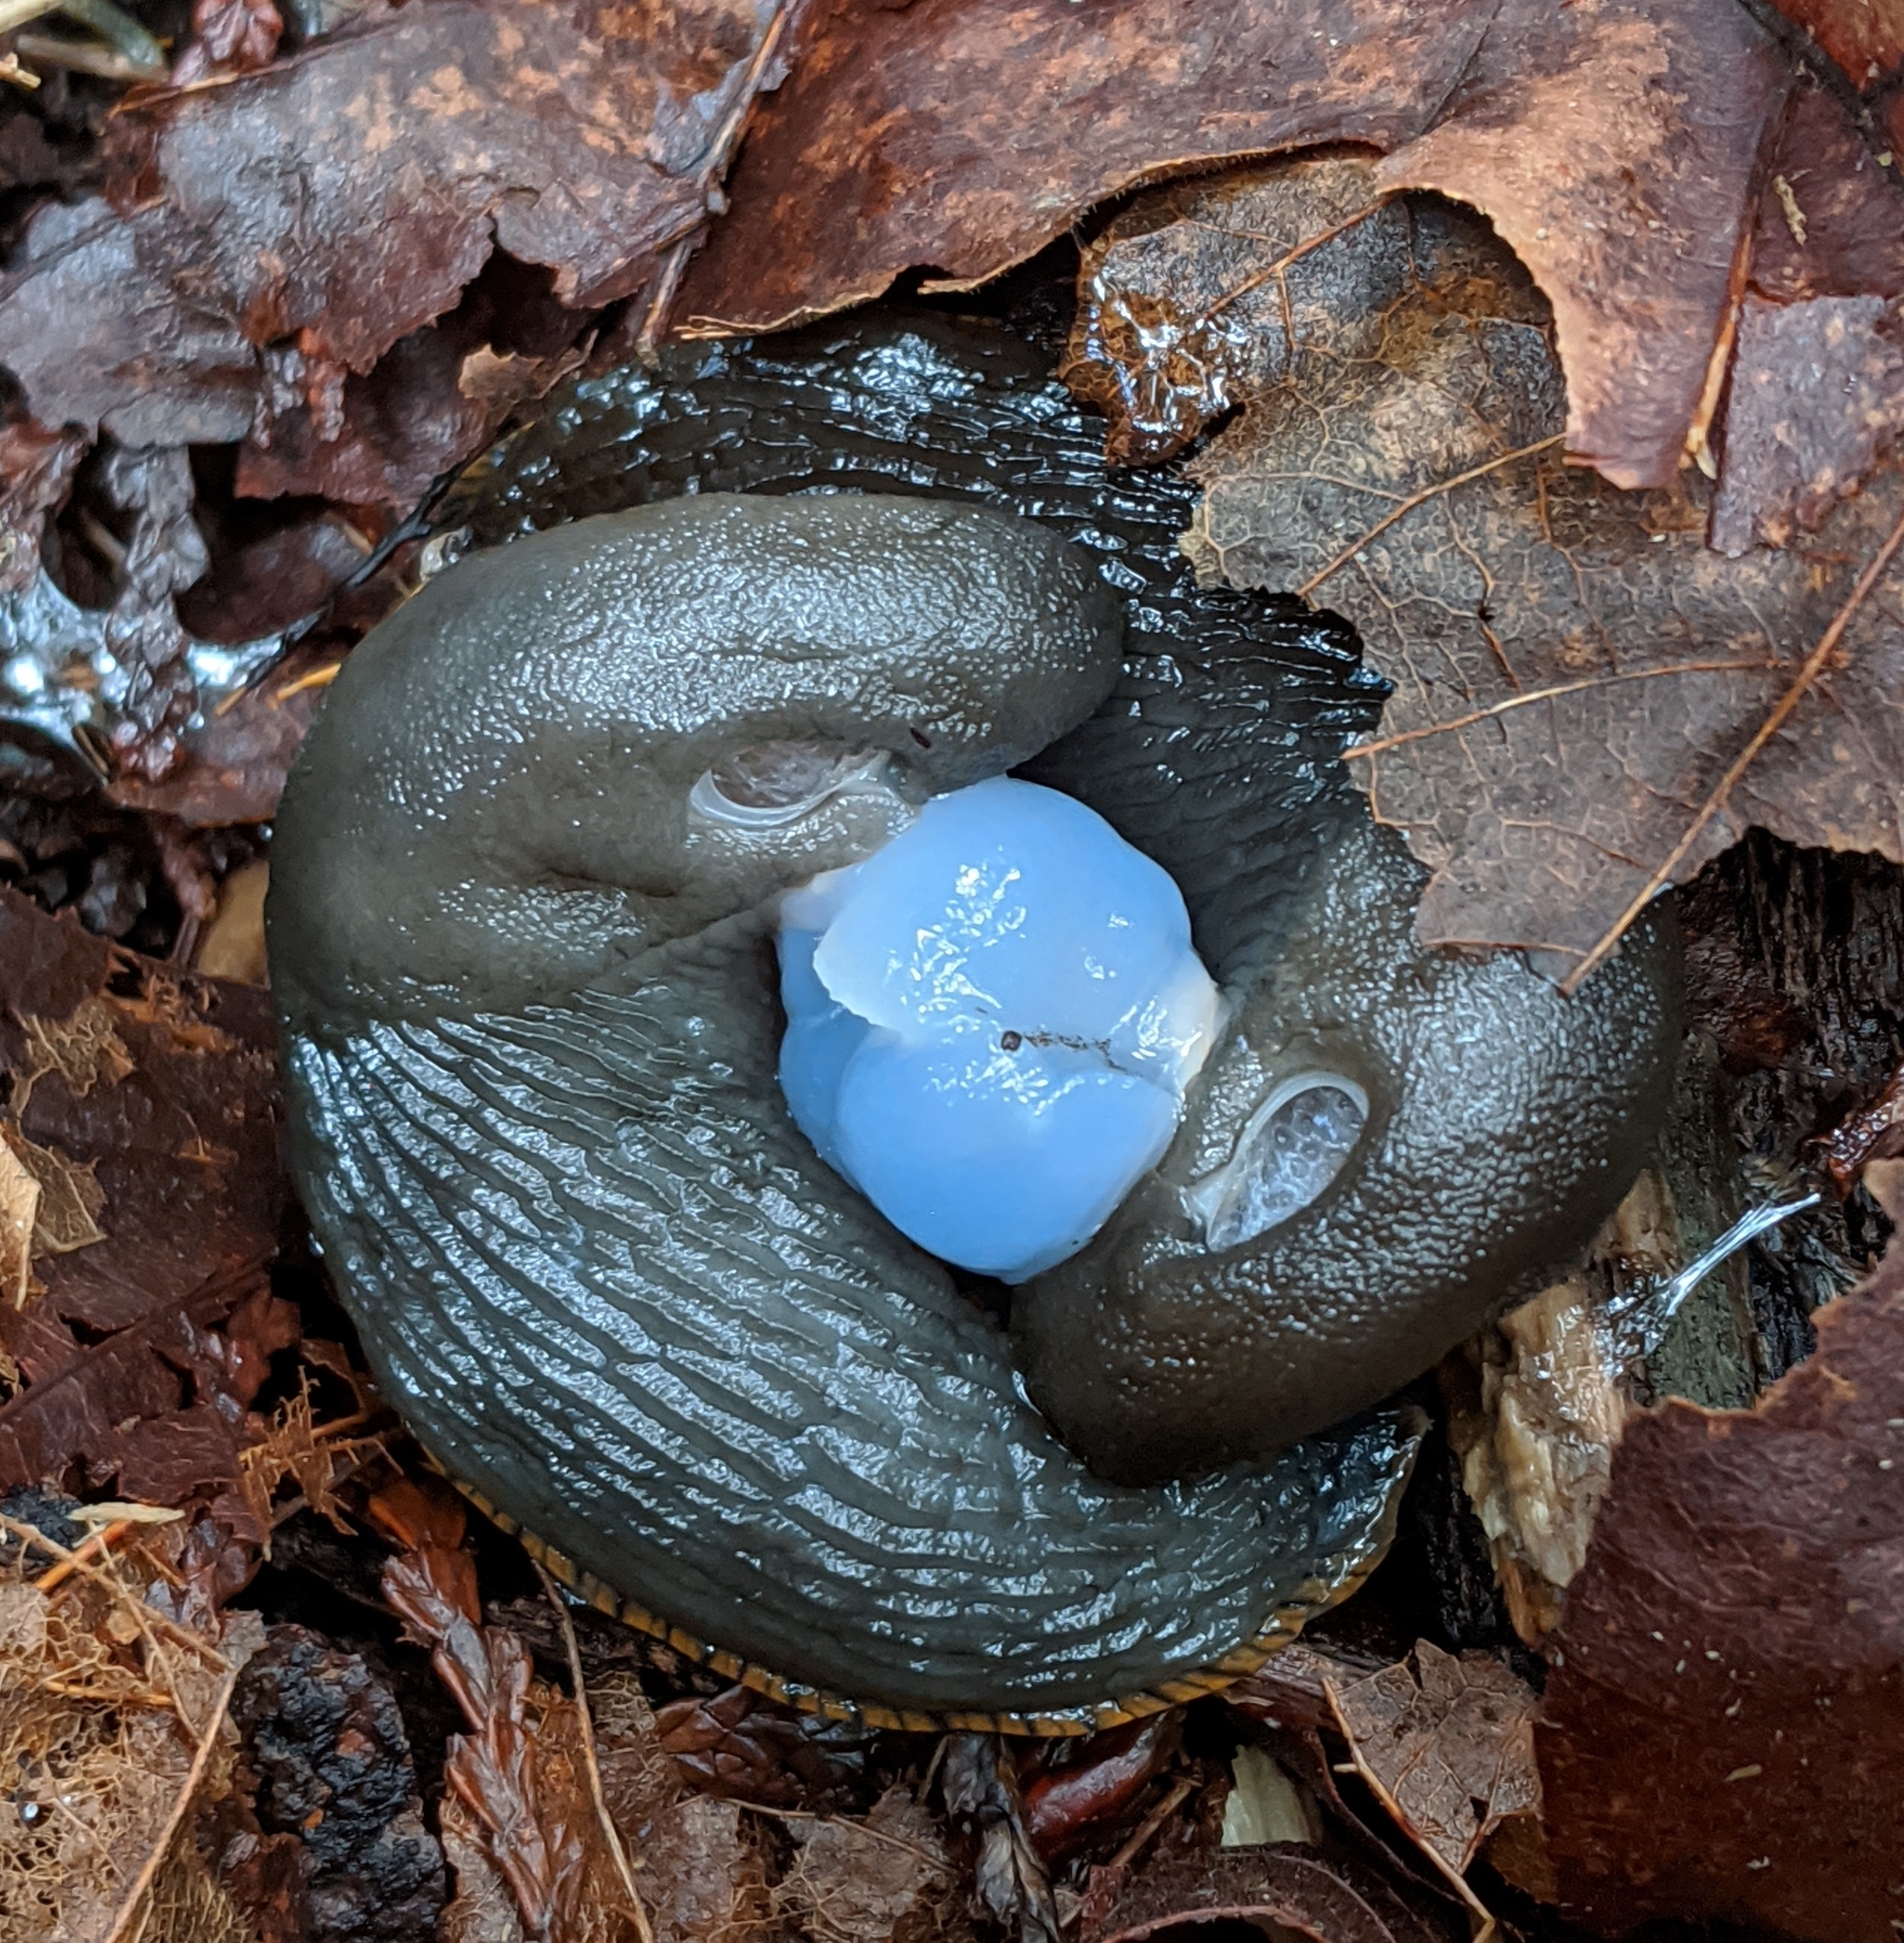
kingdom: Animalia
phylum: Mollusca
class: Gastropoda
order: Stylommatophora
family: Arionidae
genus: Arion
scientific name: Arion
